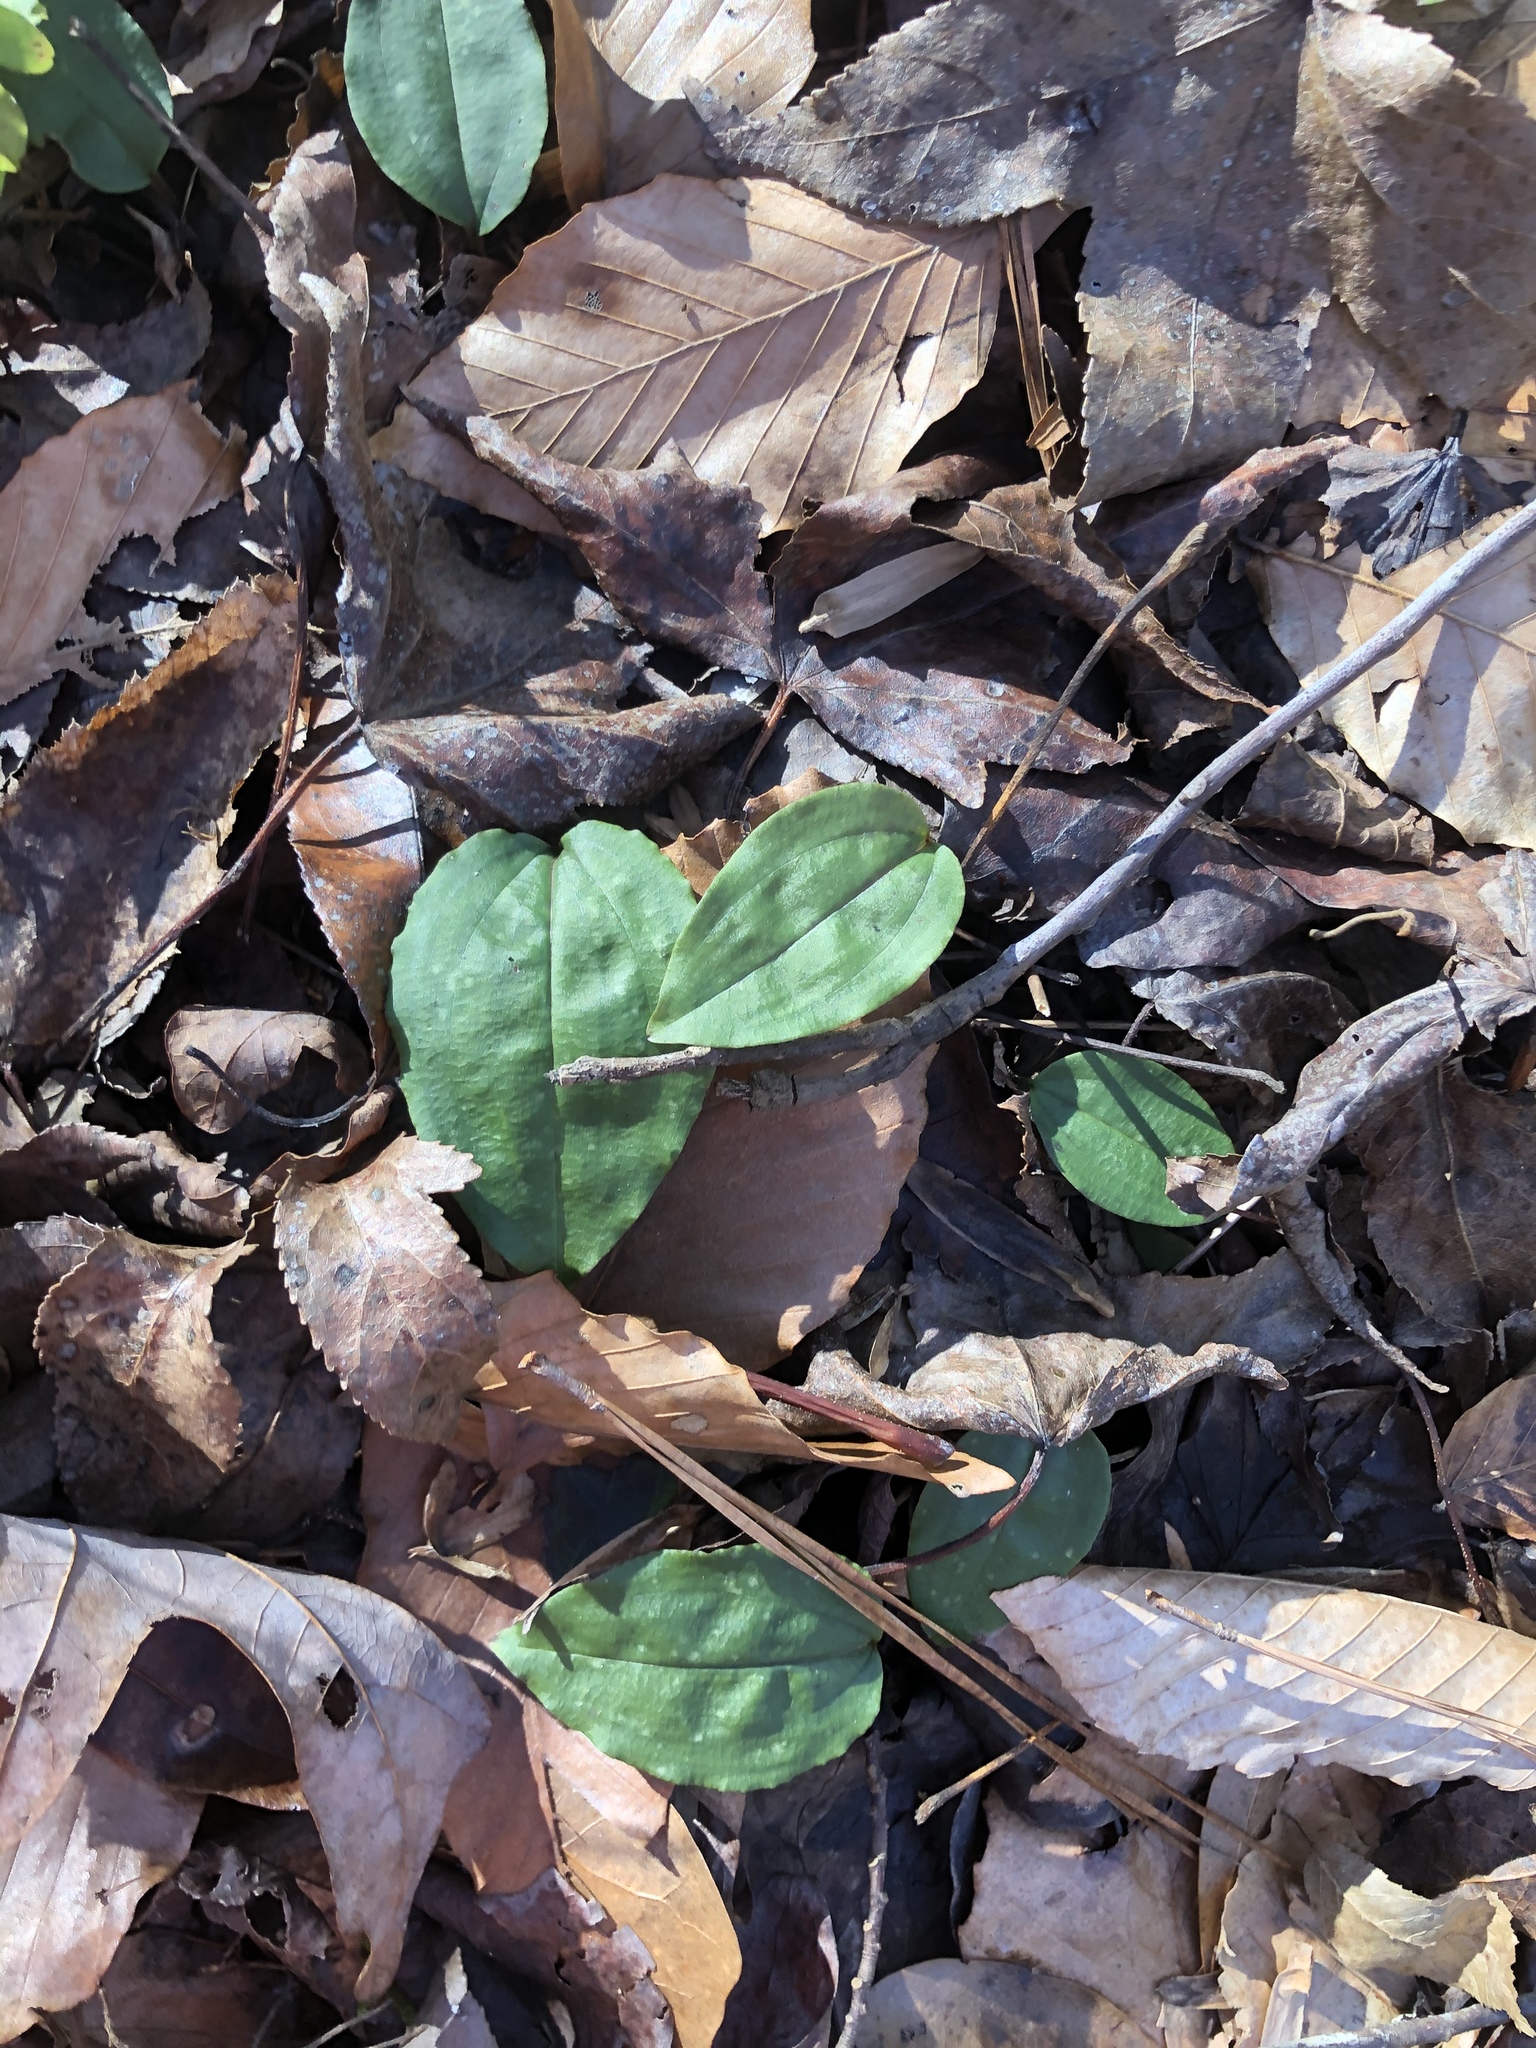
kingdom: Plantae
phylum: Tracheophyta
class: Liliopsida
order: Asparagales
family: Orchidaceae
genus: Tipularia
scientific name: Tipularia discolor
